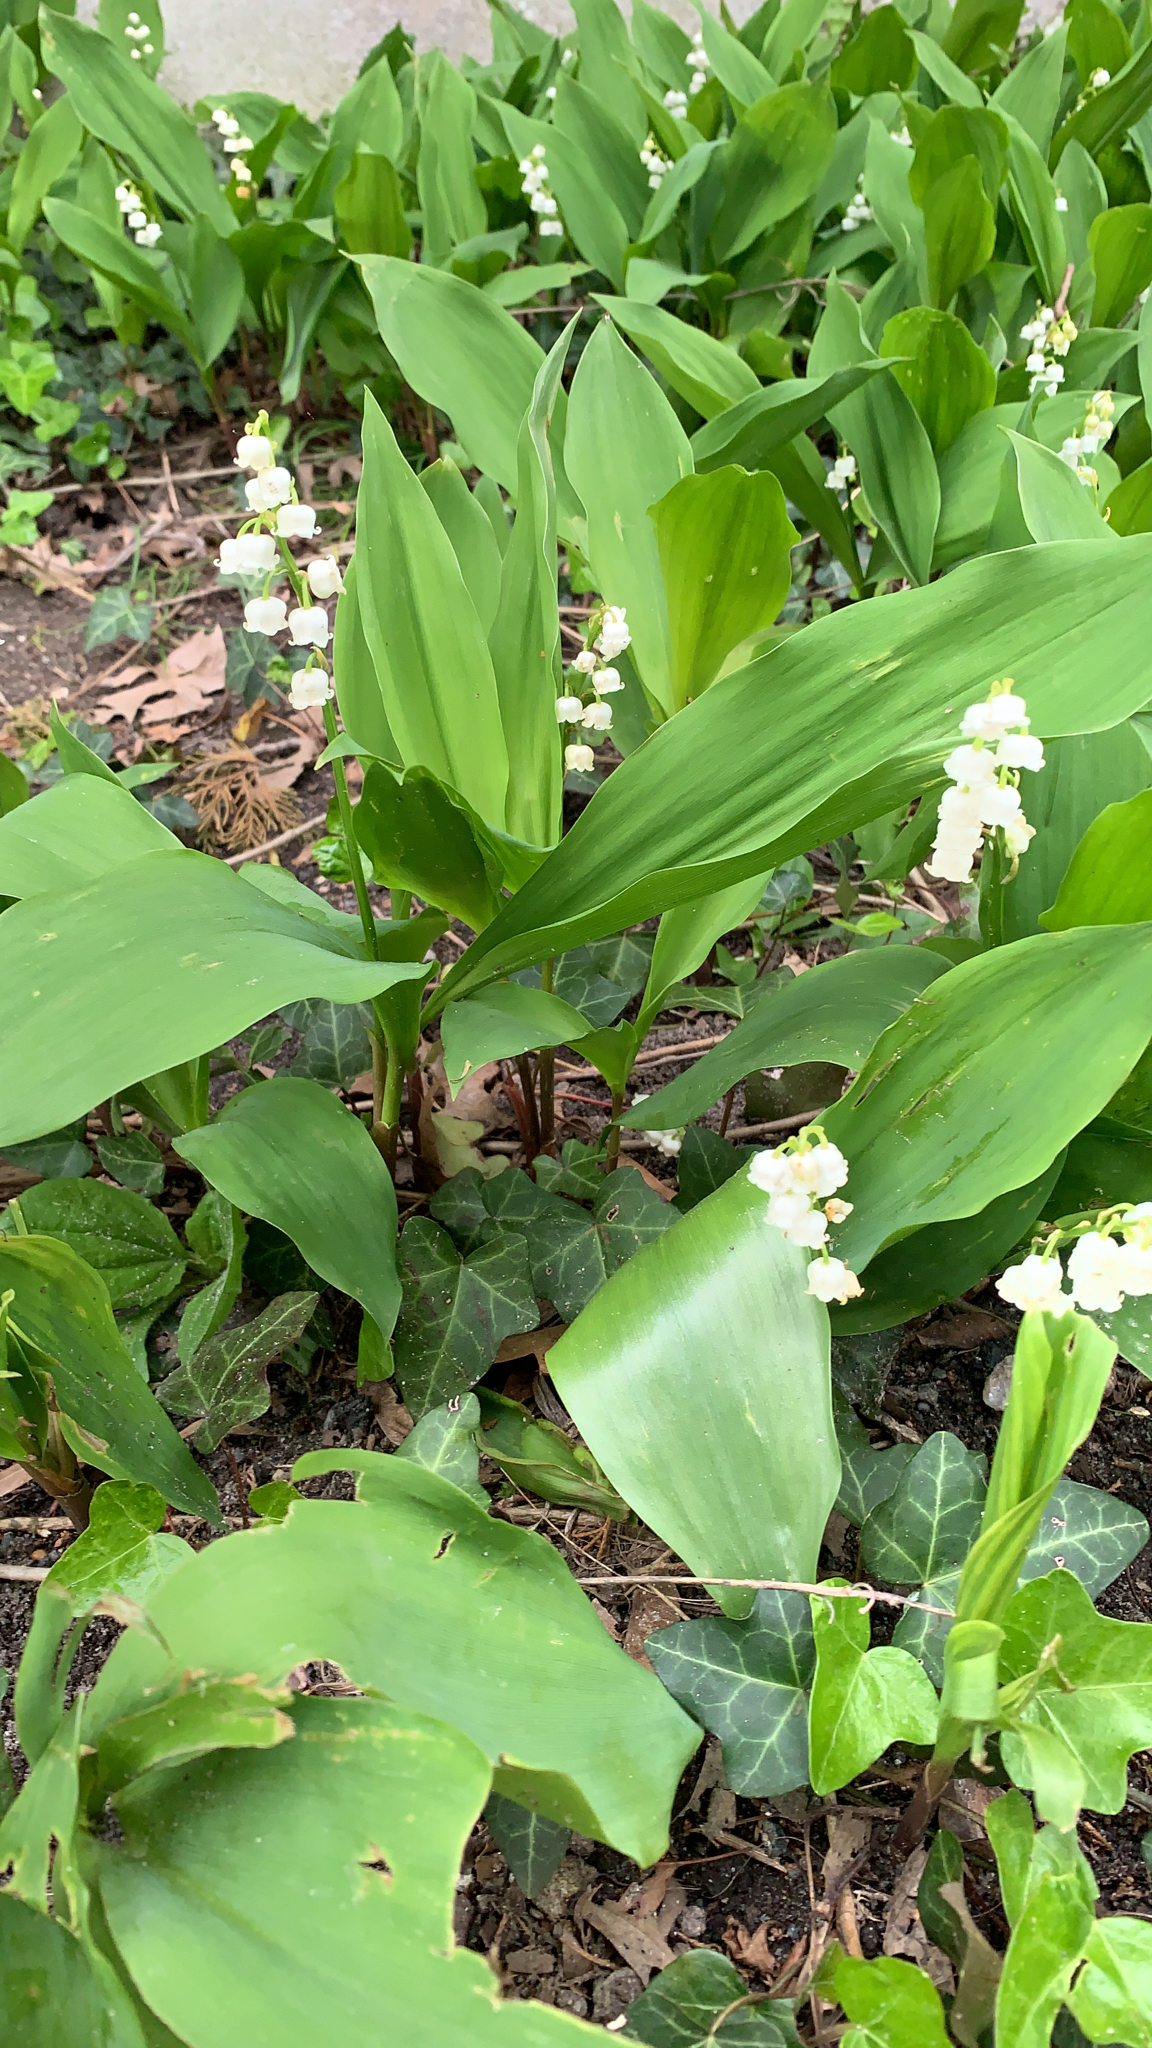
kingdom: Plantae
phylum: Tracheophyta
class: Liliopsida
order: Asparagales
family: Asparagaceae
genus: Convallaria
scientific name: Convallaria majalis
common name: Lily-of-the-valley
